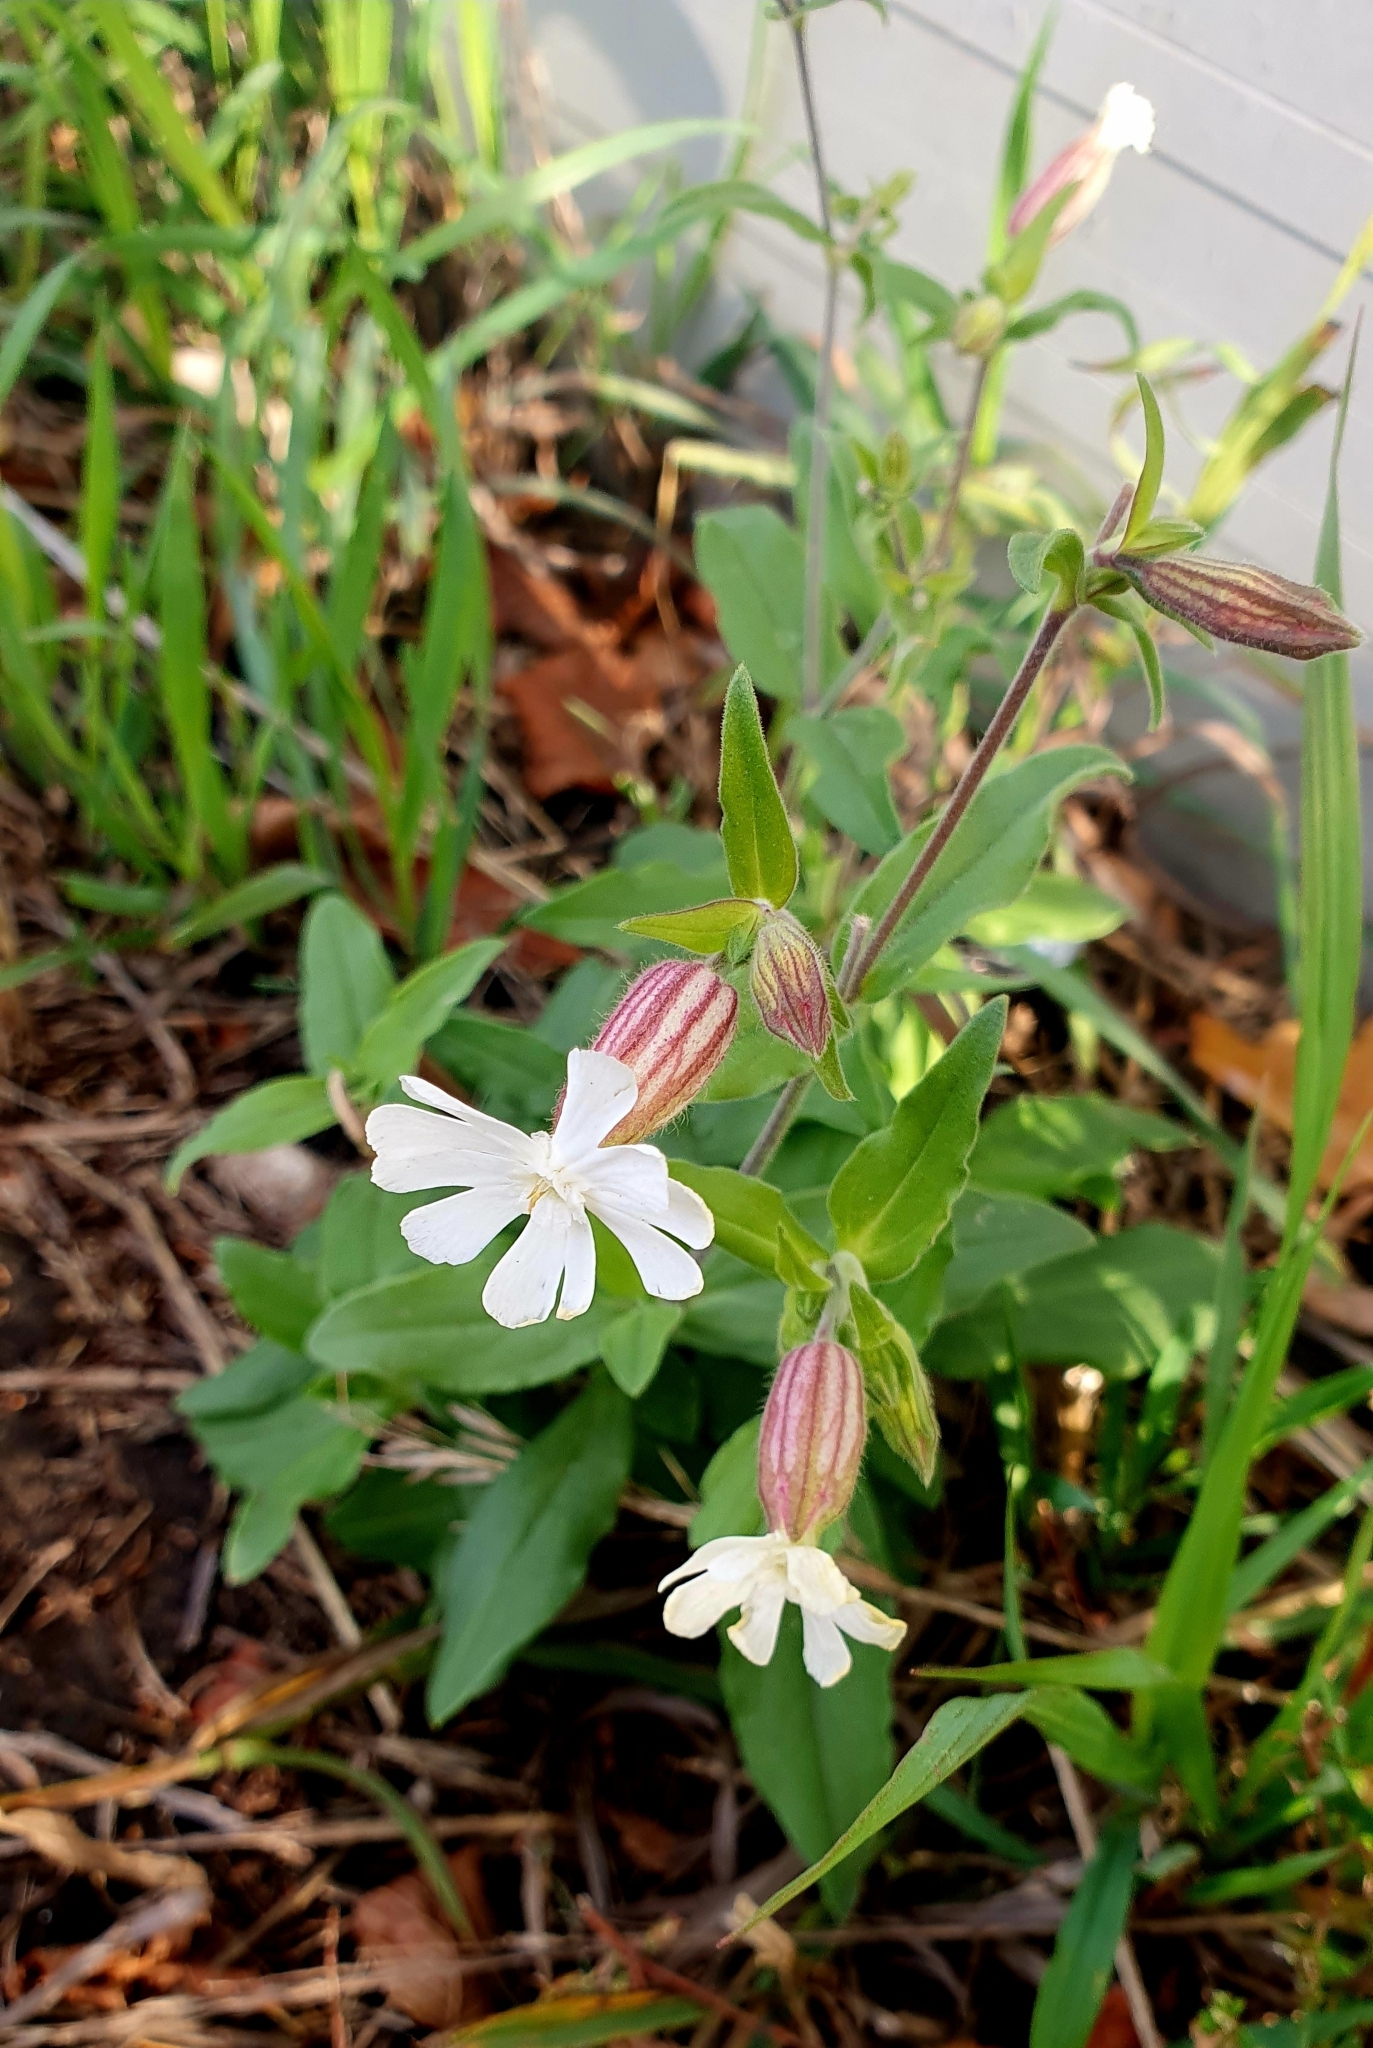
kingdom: Plantae
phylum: Tracheophyta
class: Magnoliopsida
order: Caryophyllales
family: Caryophyllaceae
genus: Silene
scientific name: Silene latifolia
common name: White campion
